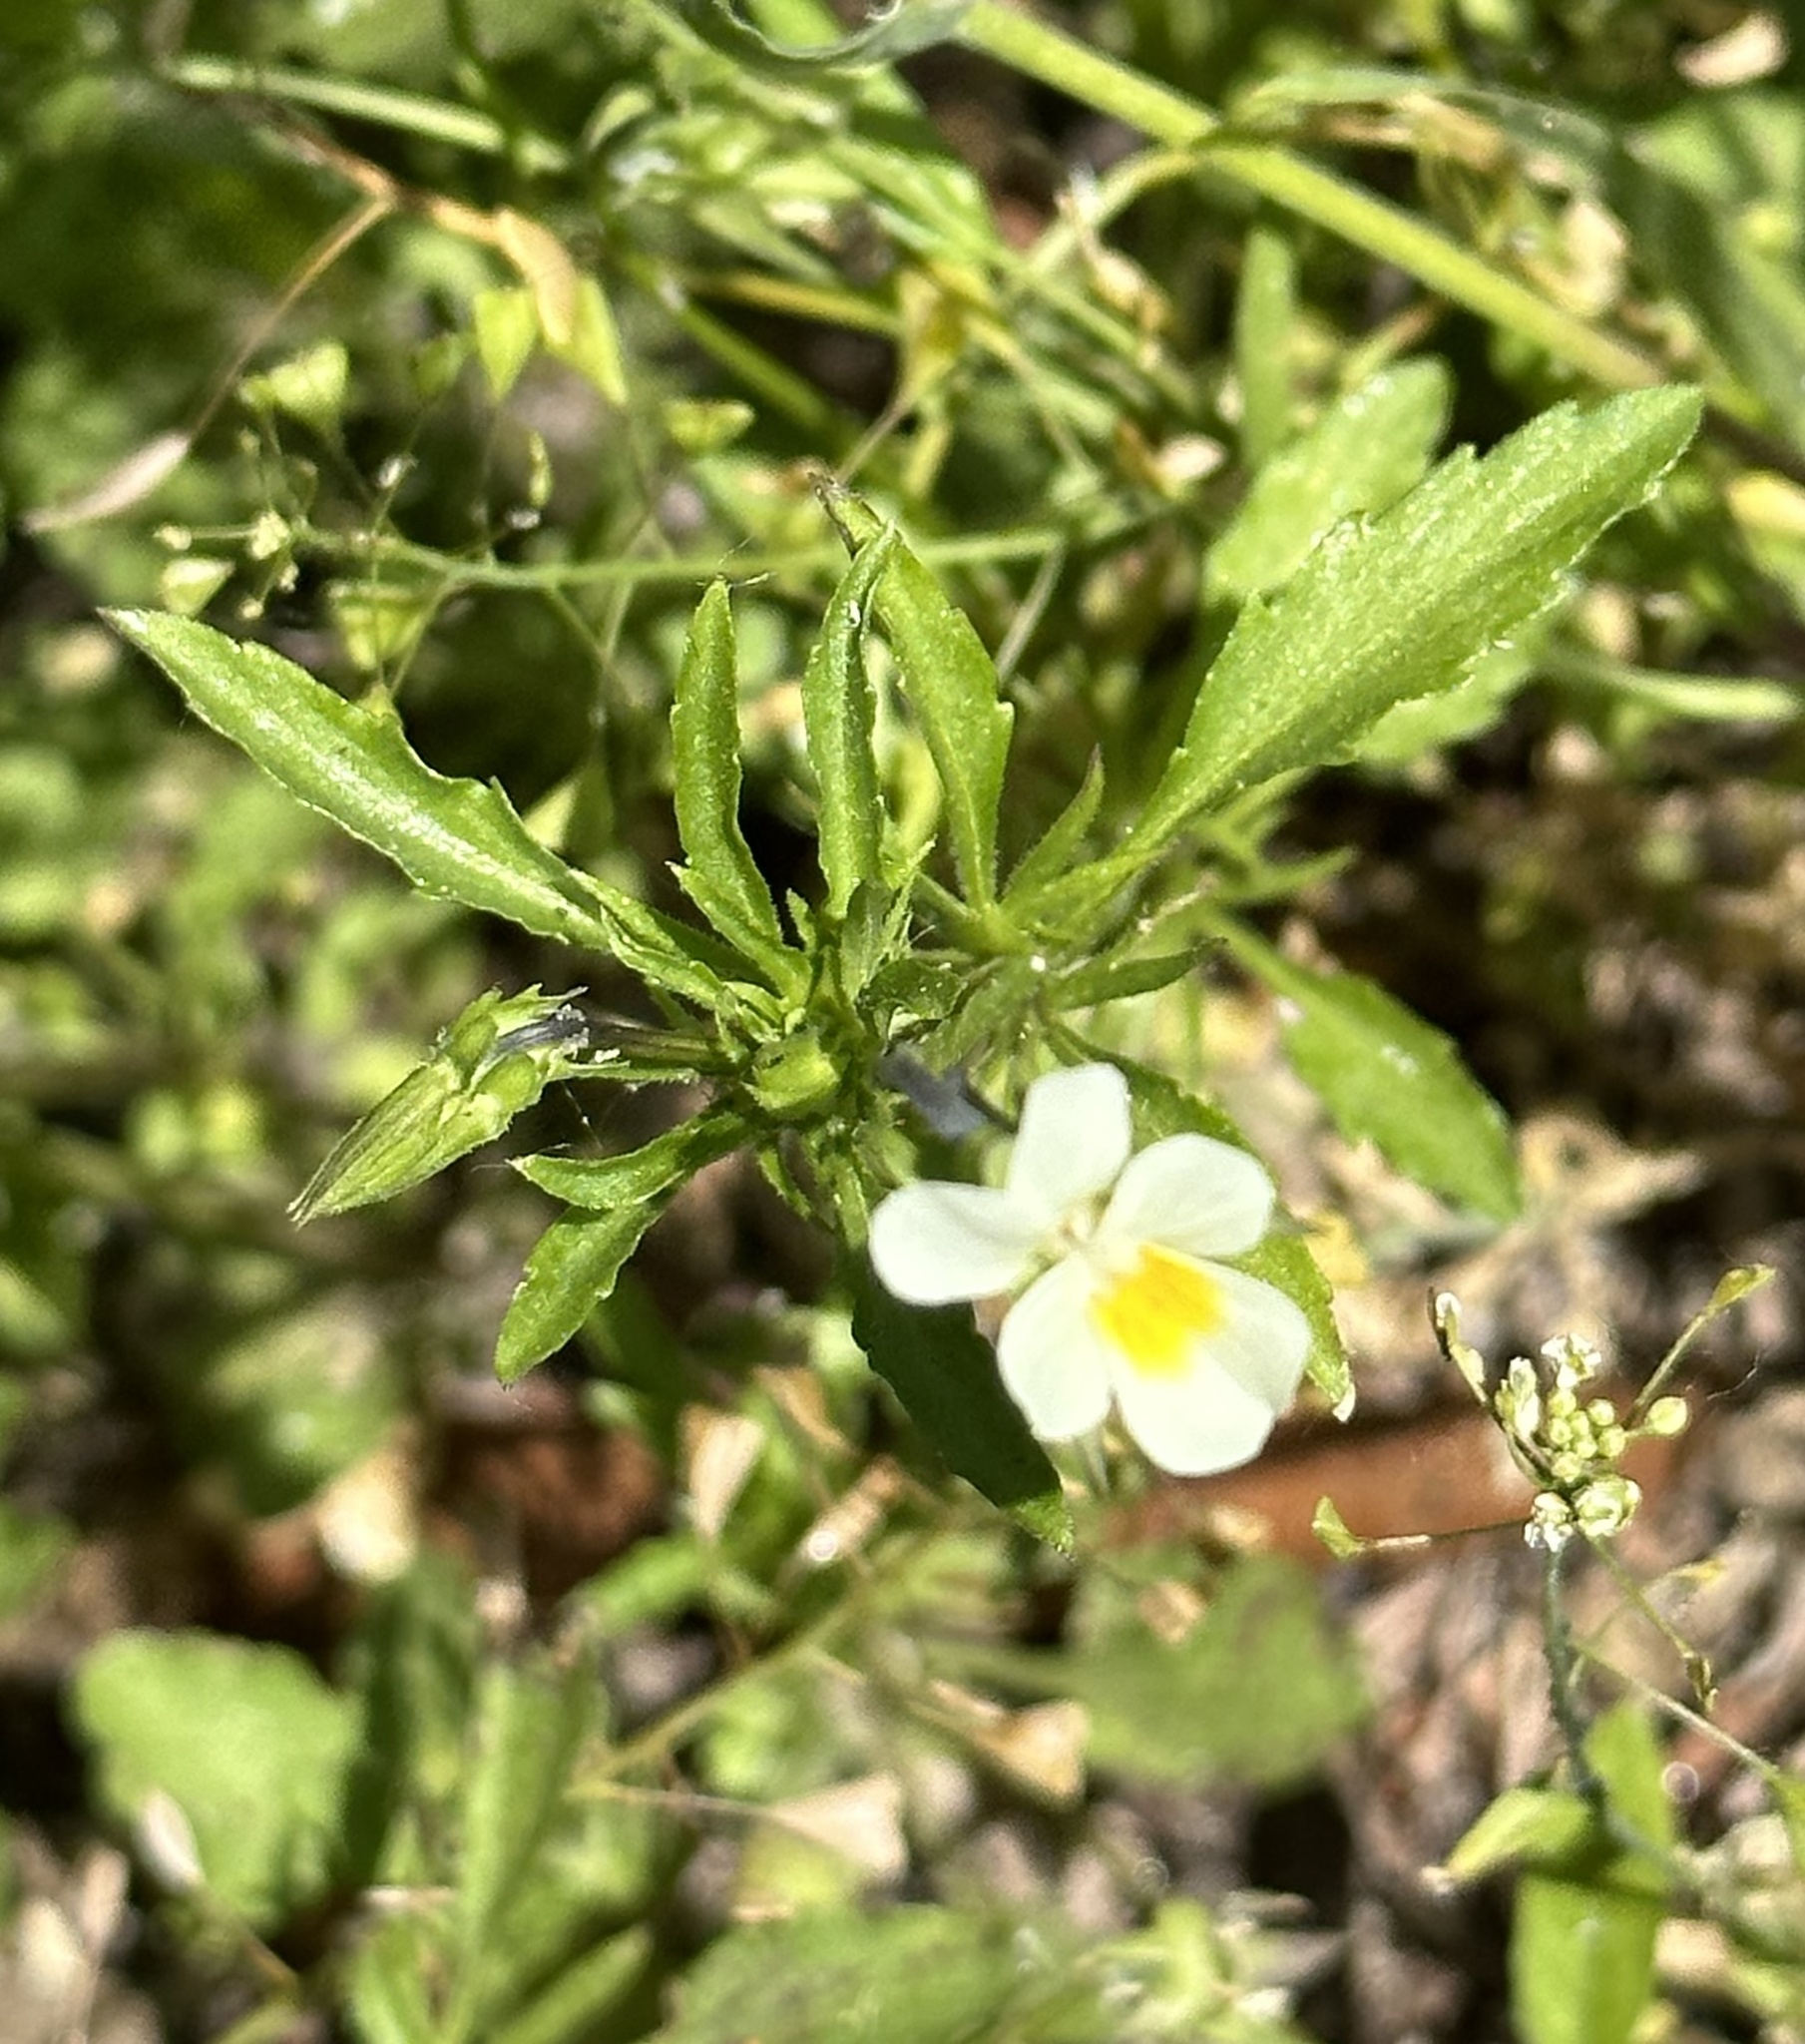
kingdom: Plantae
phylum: Tracheophyta
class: Magnoliopsida
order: Malpighiales
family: Violaceae
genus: Viola
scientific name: Viola arvensis
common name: Field pansy
